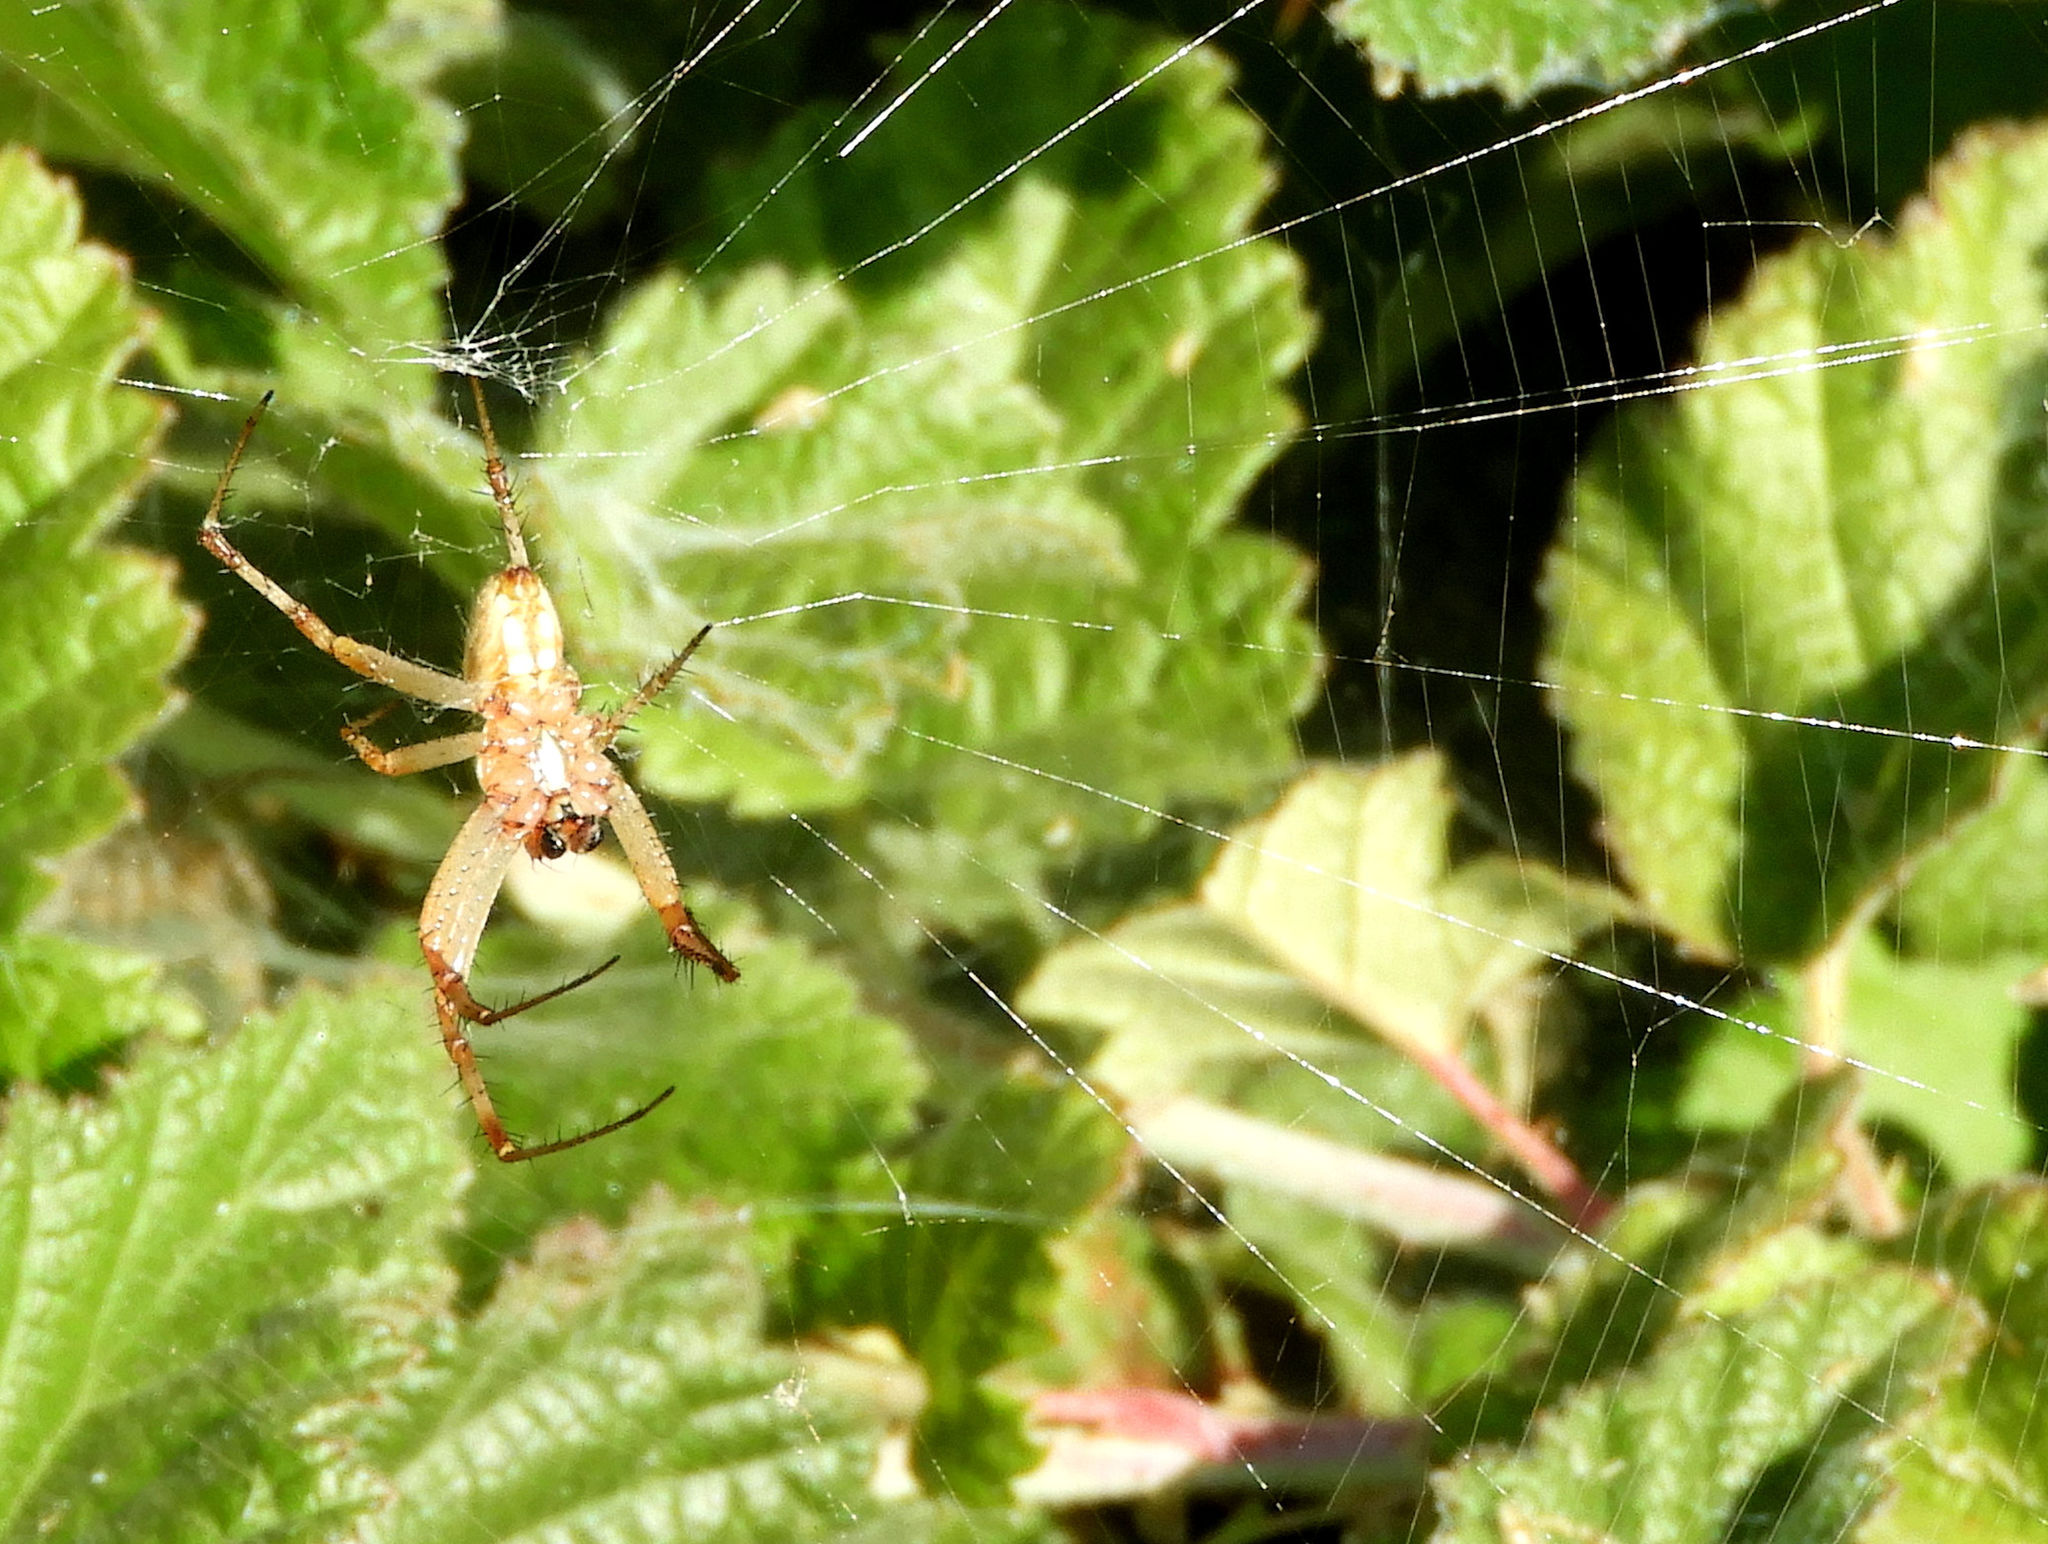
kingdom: Animalia
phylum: Arthropoda
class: Arachnida
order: Araneae
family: Araneidae
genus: Neoscona
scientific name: Neoscona oaxacensis
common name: Orb weavers
